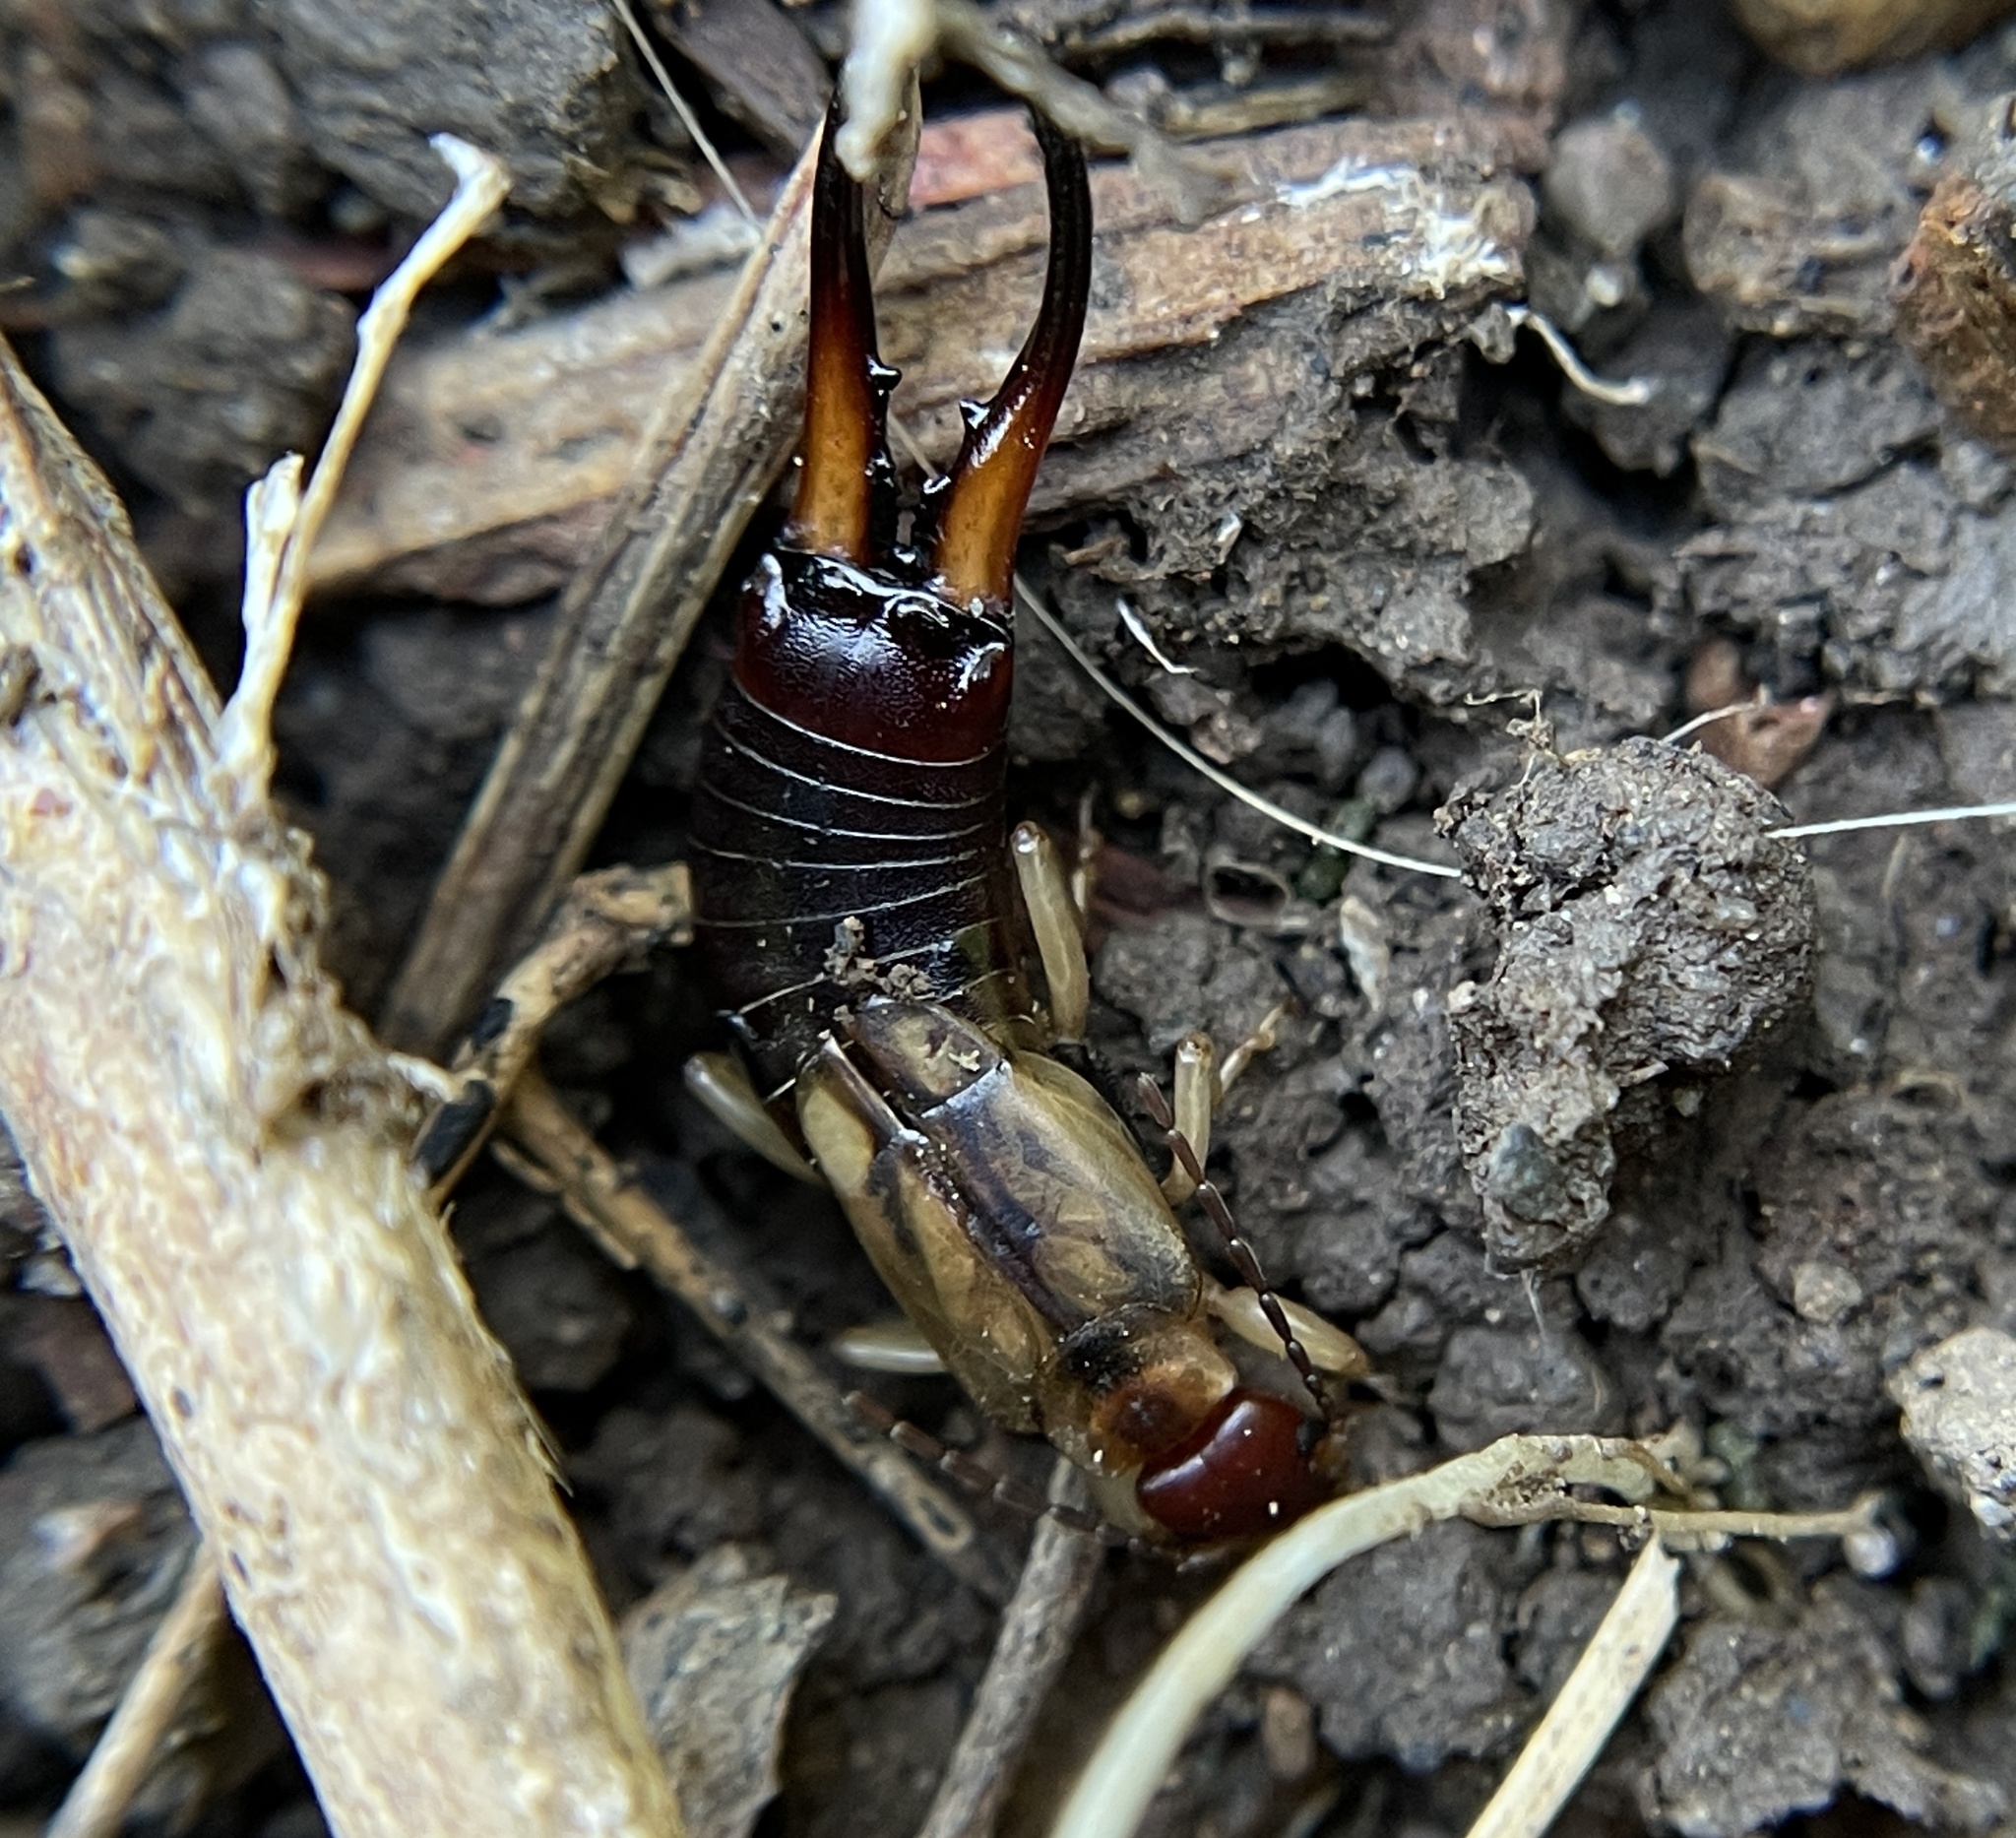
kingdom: Animalia
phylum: Arthropoda
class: Insecta
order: Dermaptera
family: Forficulidae
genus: Forficula
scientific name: Forficula
